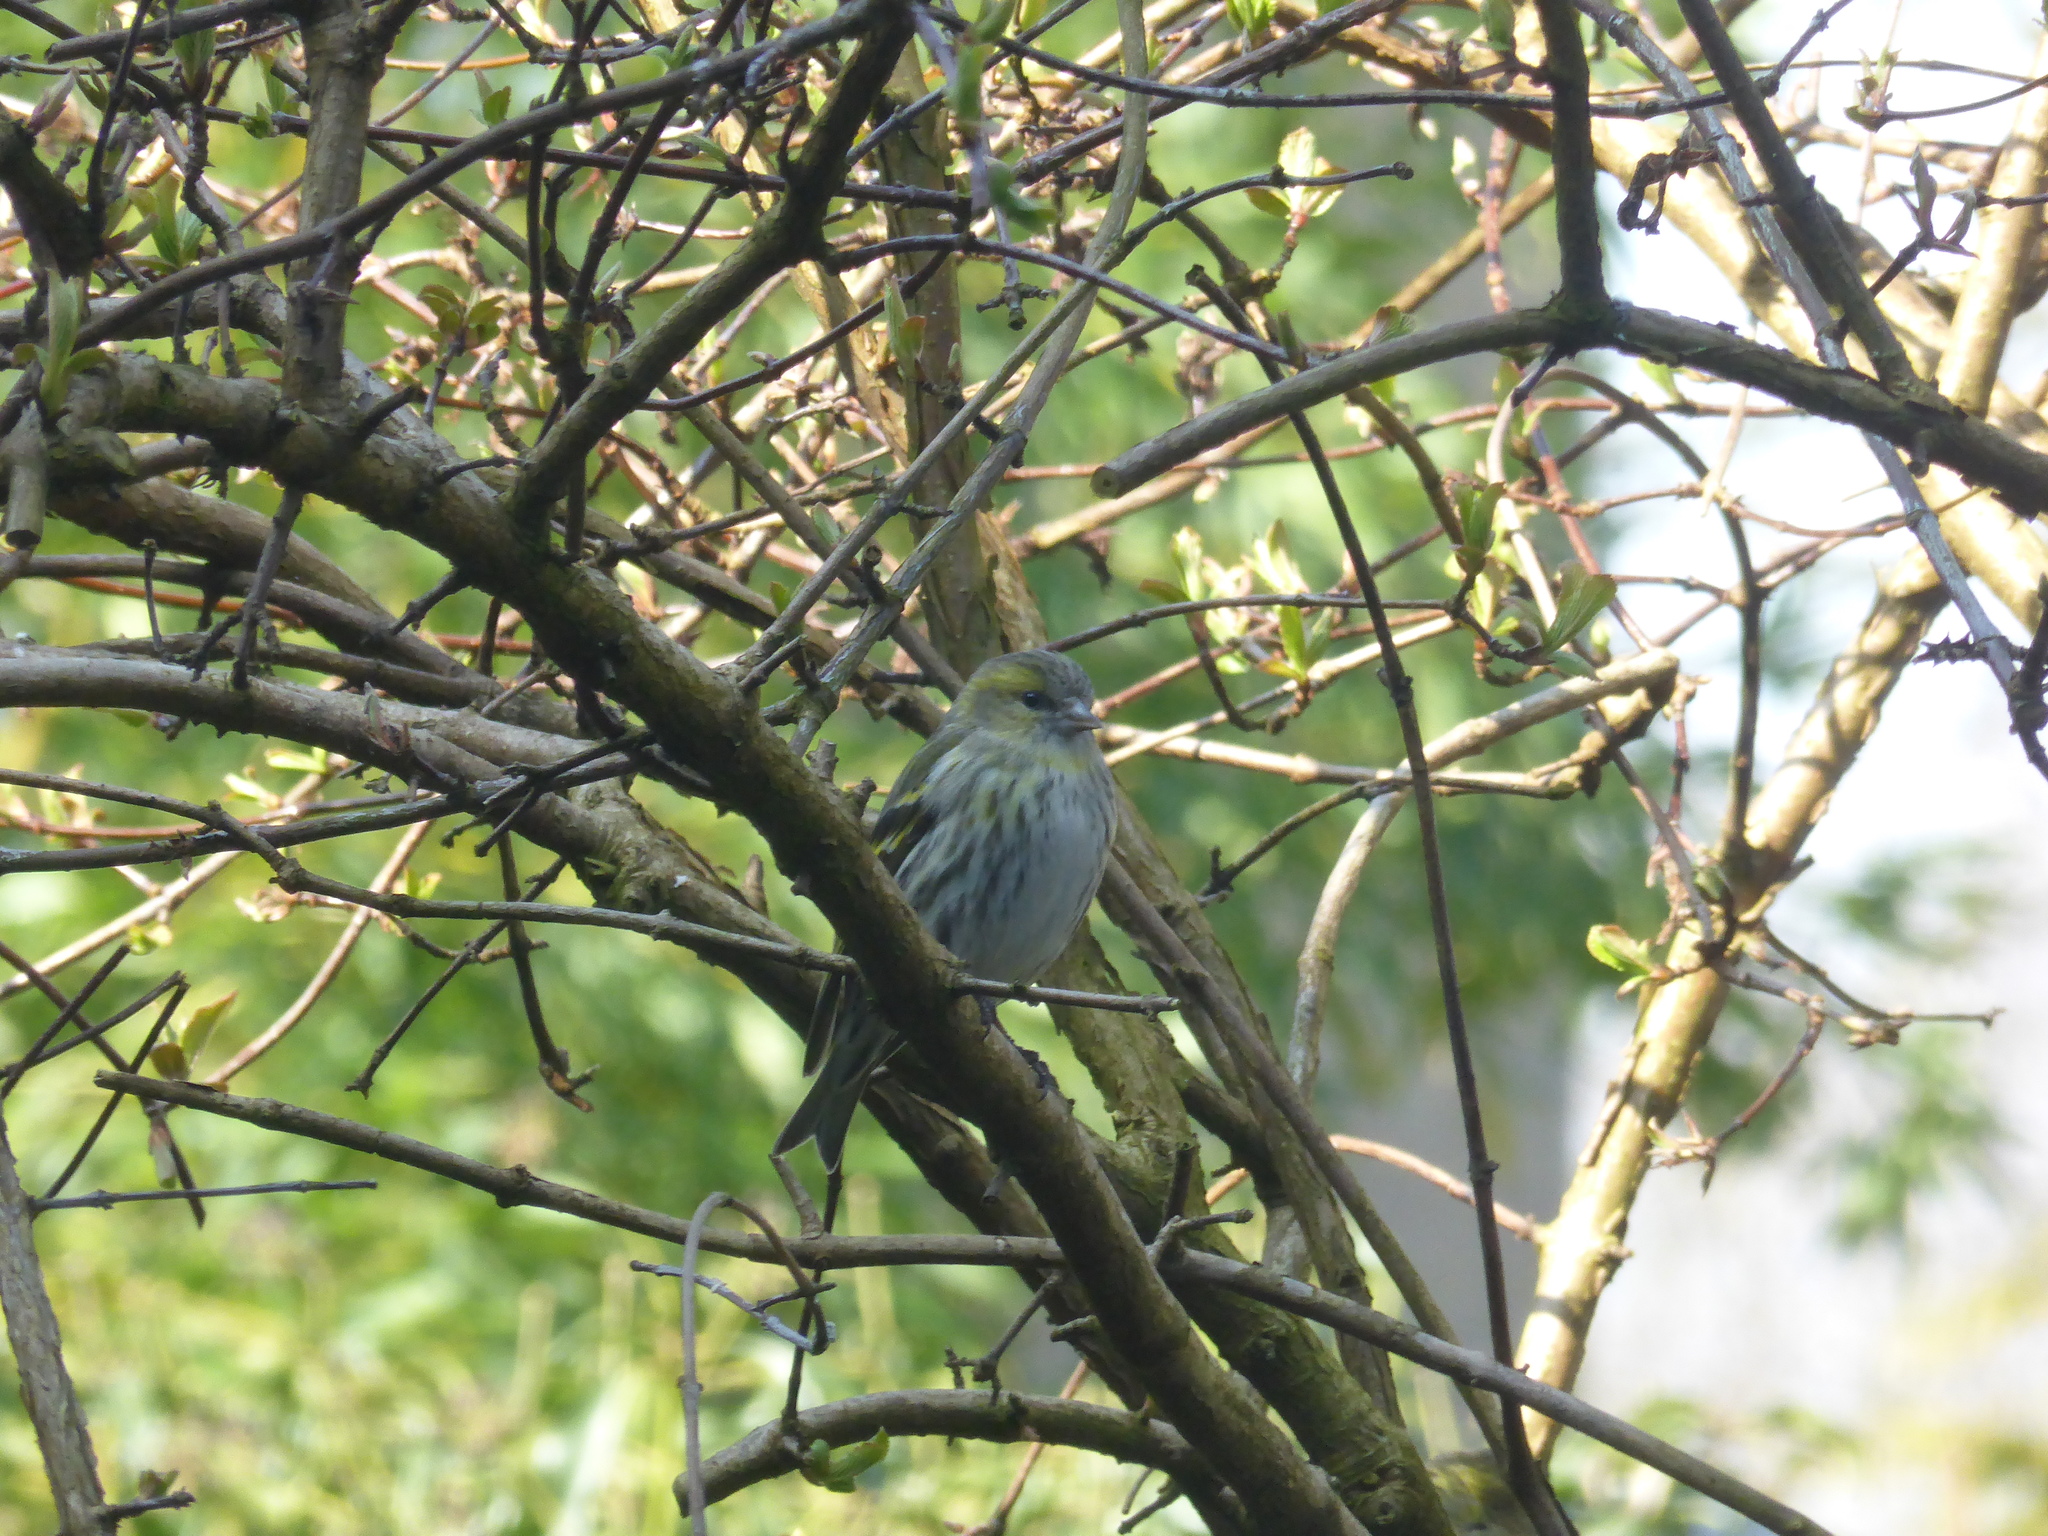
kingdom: Animalia
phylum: Chordata
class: Aves
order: Passeriformes
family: Fringillidae
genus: Spinus
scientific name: Spinus spinus
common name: Eurasian siskin
